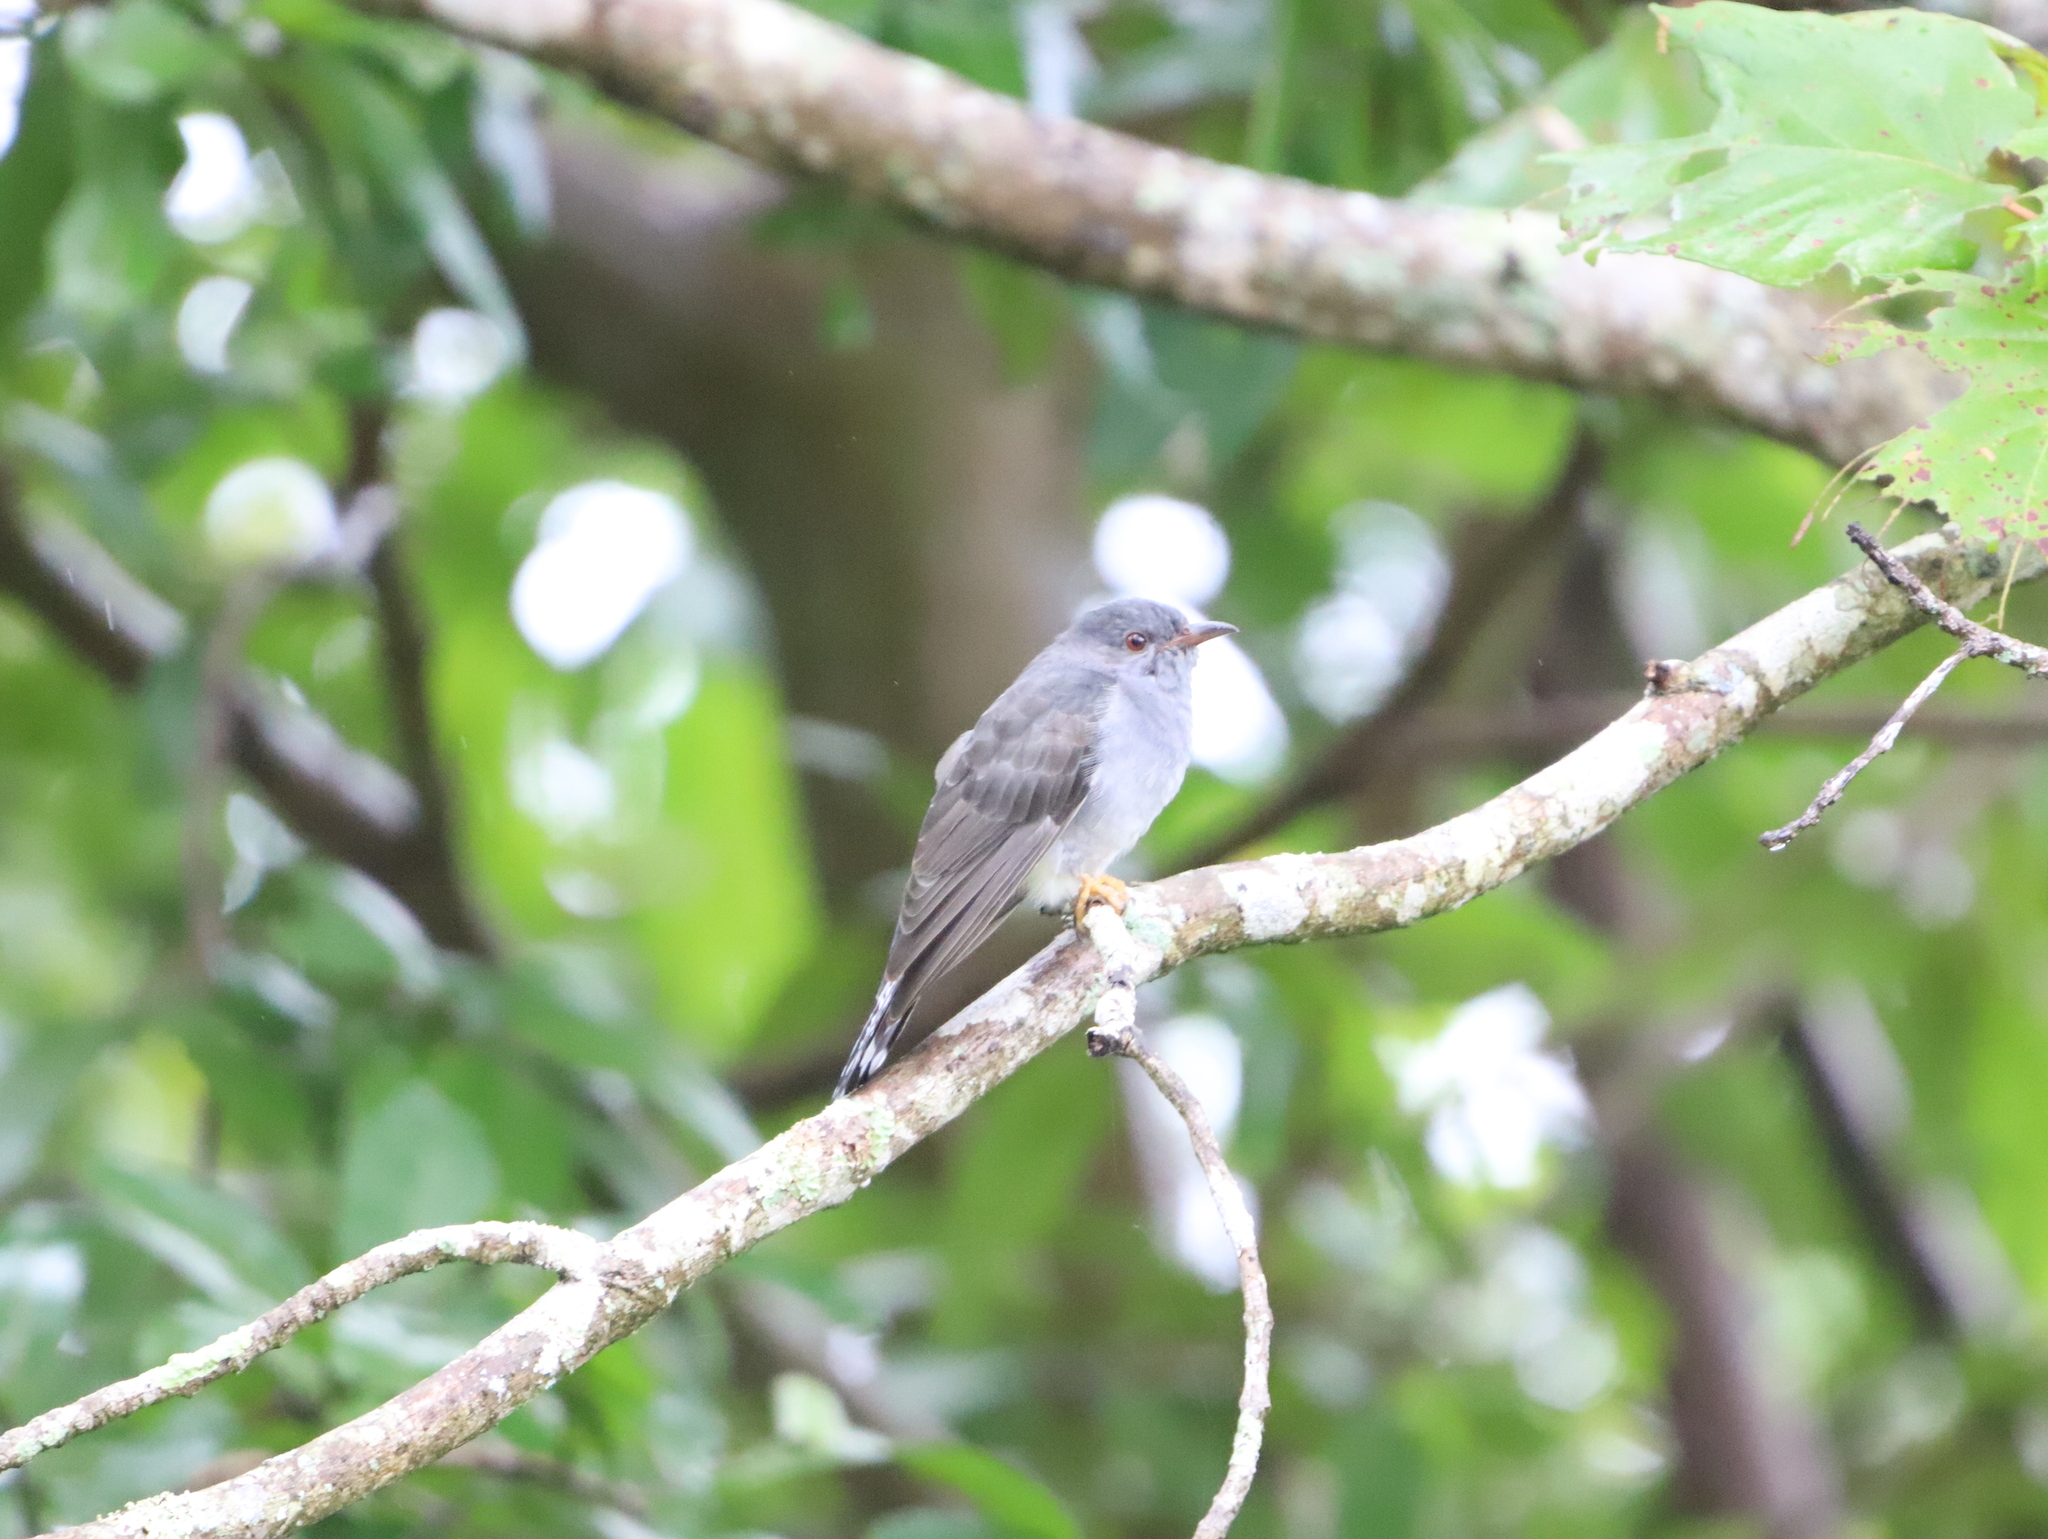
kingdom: Animalia
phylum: Chordata
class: Aves
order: Cuculiformes
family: Cuculidae
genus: Cacomantis
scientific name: Cacomantis passerinus
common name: Grey-bellied cuckoo
